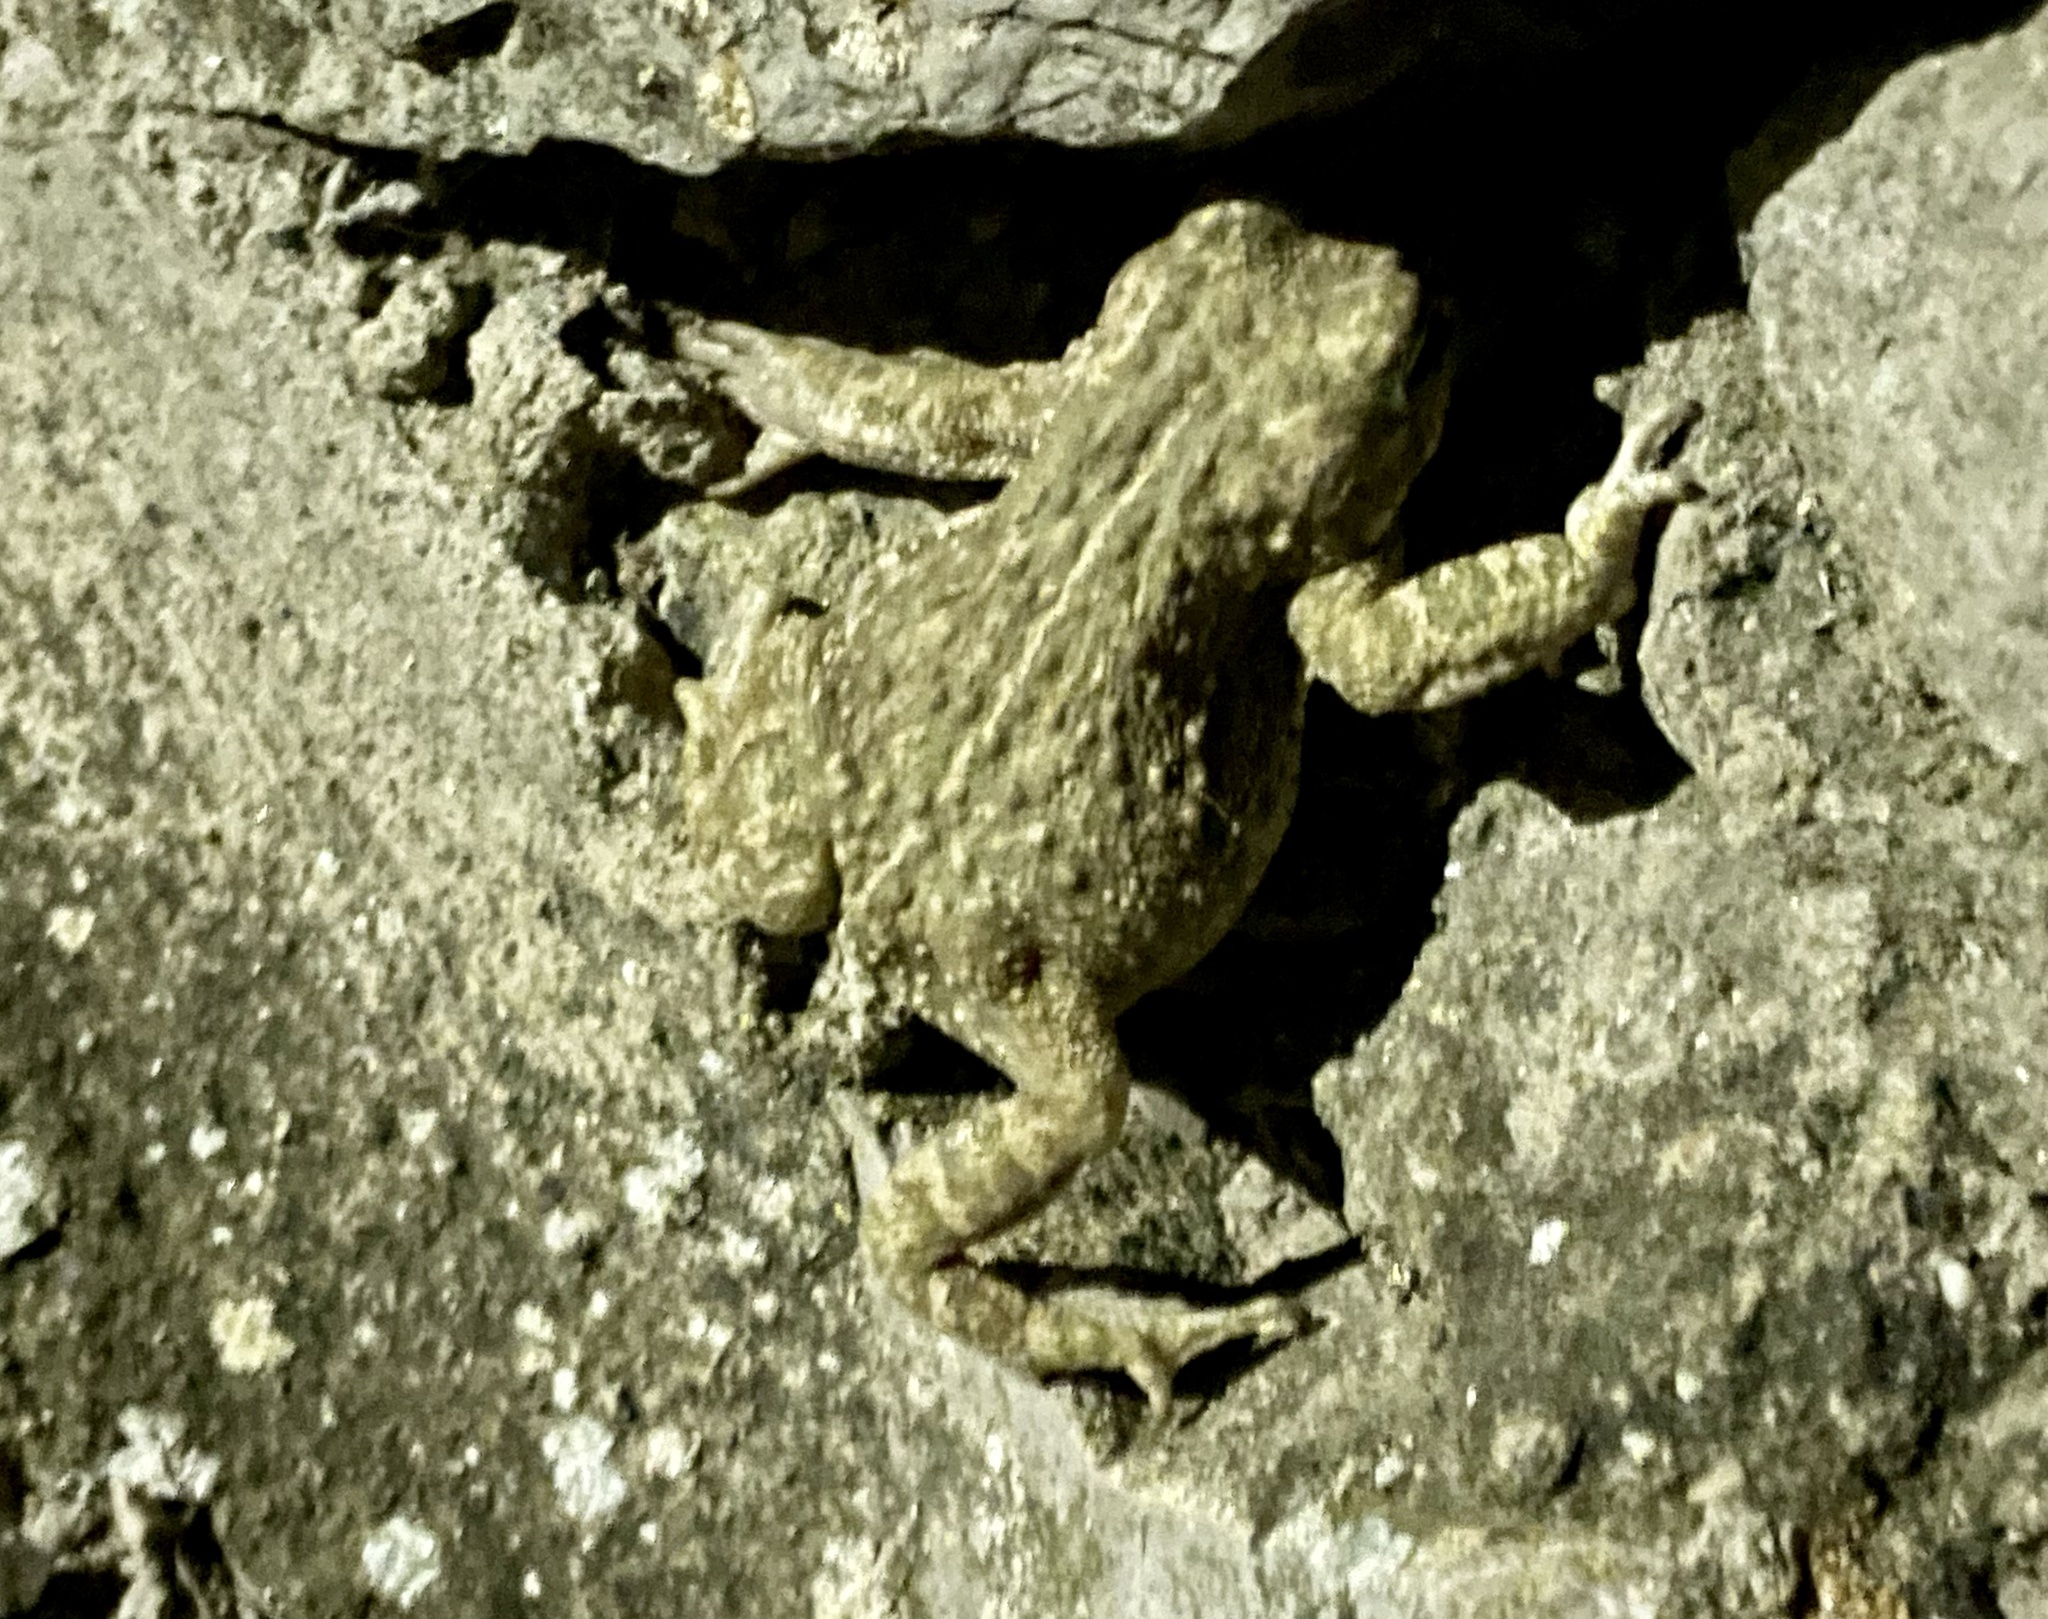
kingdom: Animalia
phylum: Chordata
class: Amphibia
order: Anura
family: Bufonidae
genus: Epidalea
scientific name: Epidalea calamita
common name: Natterjack toad
